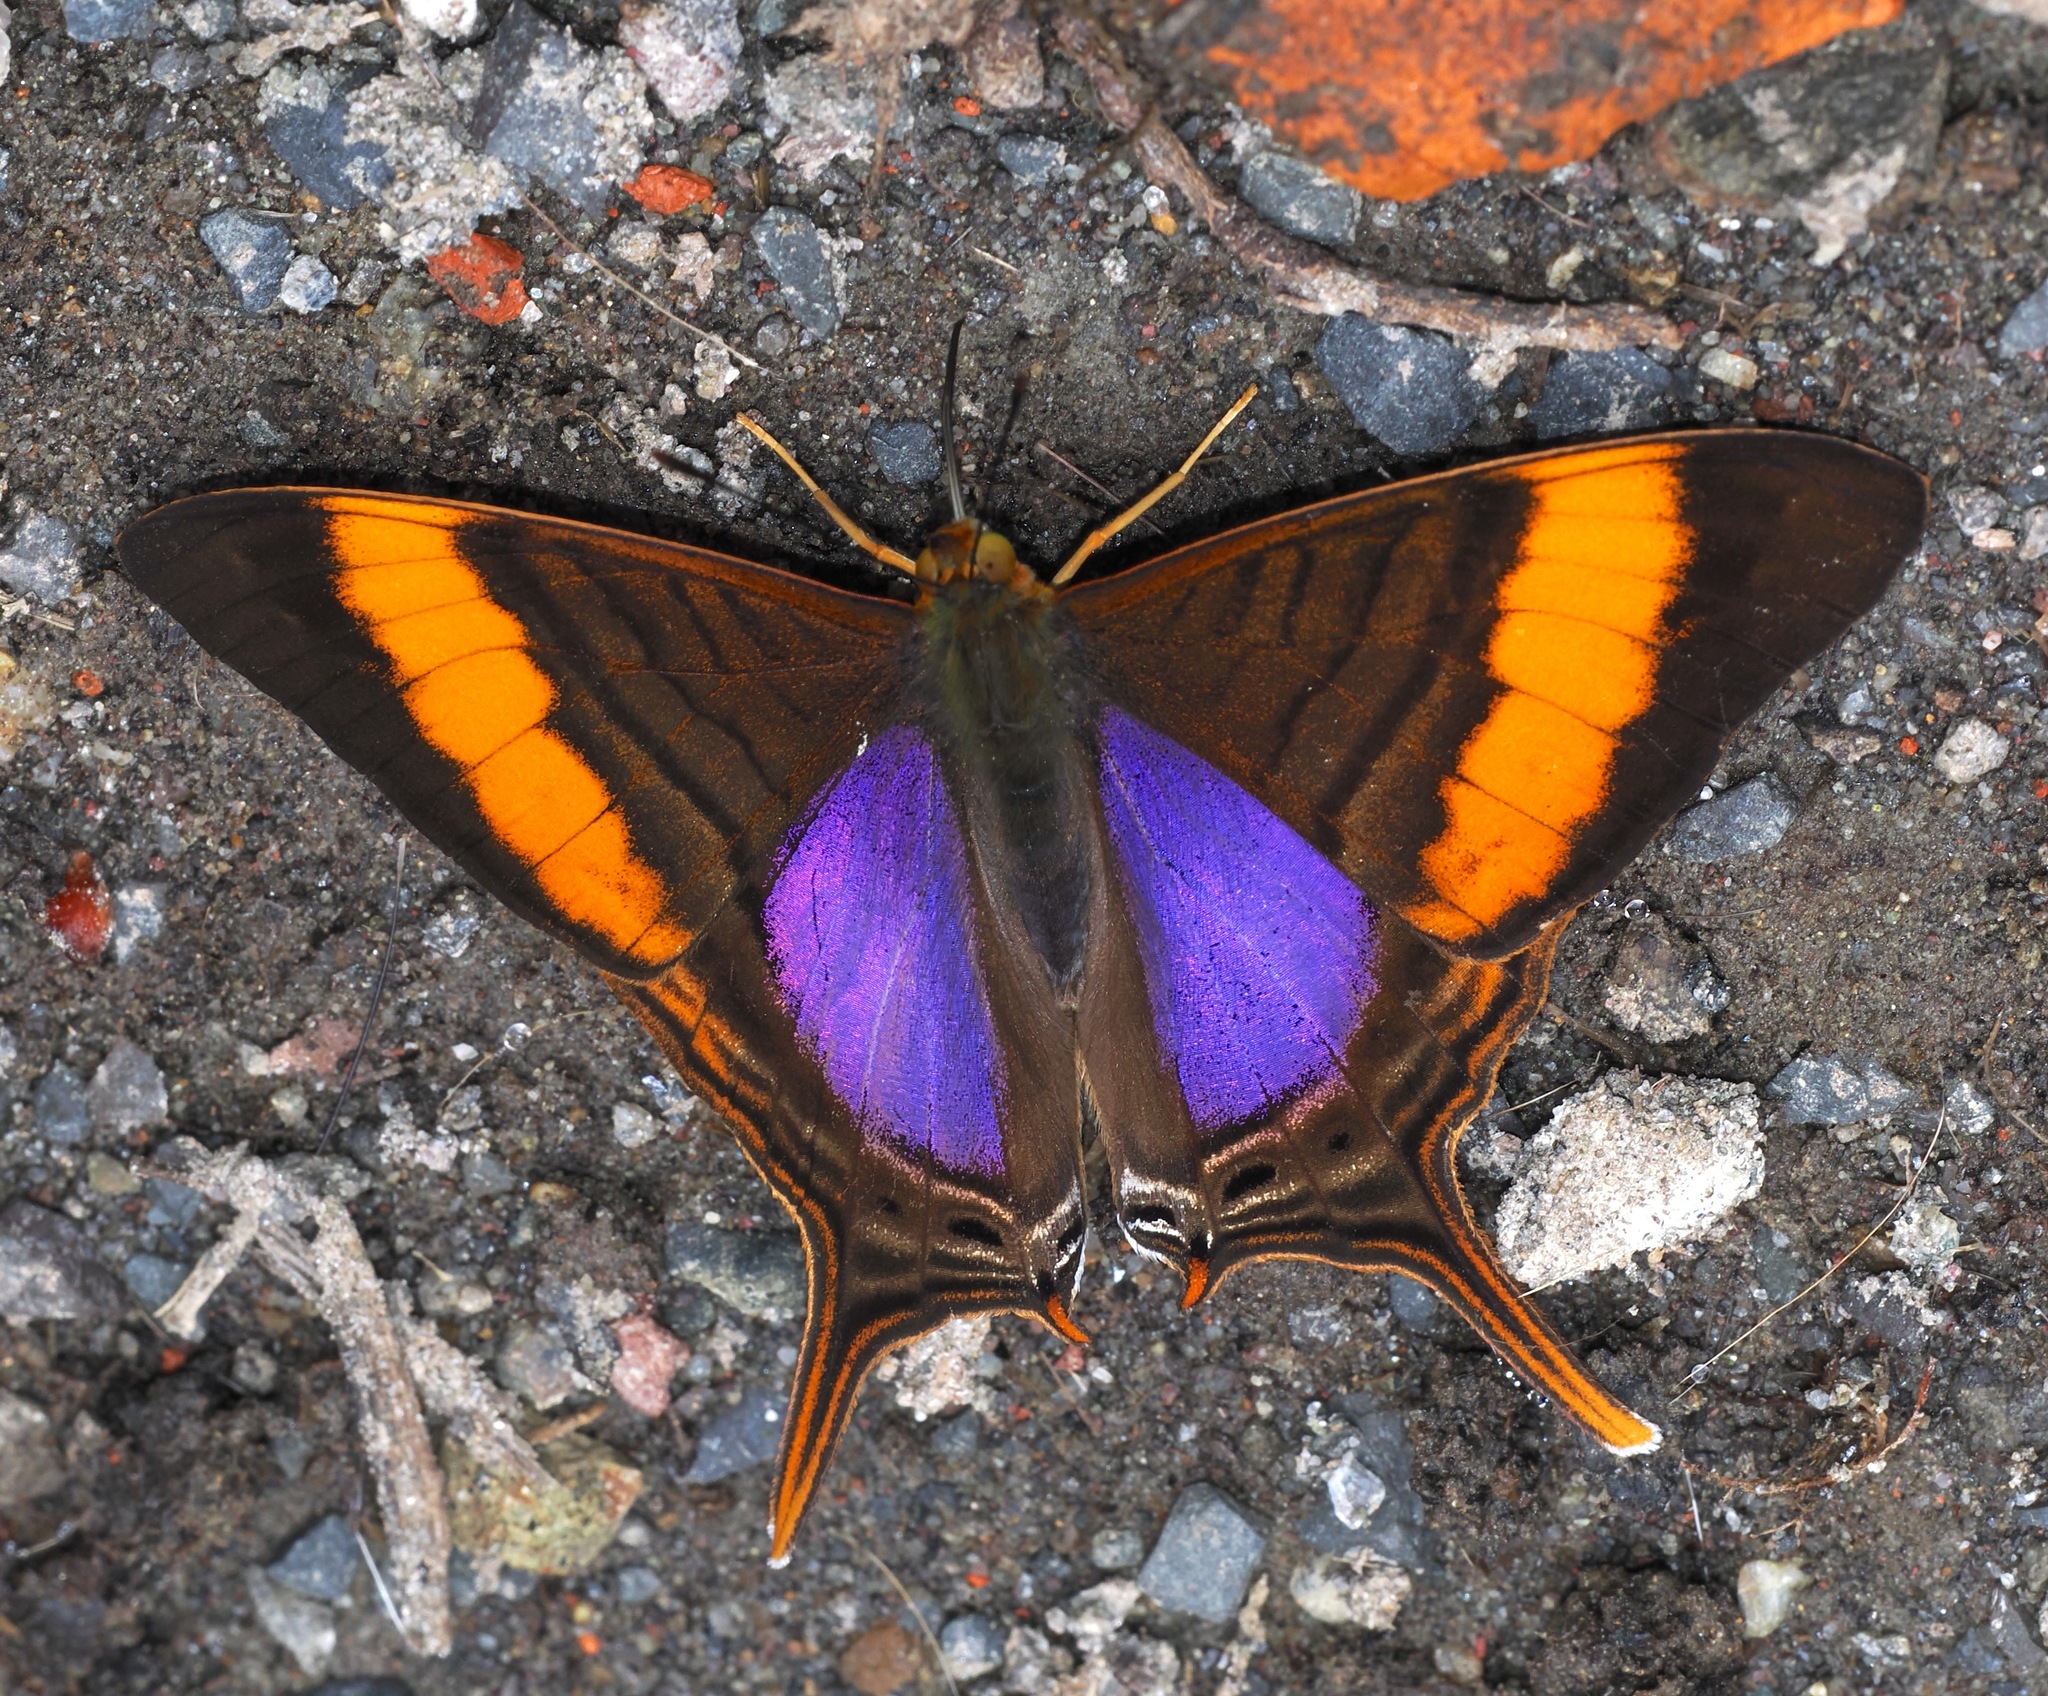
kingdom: Animalia
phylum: Arthropoda
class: Insecta
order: Lepidoptera
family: Nymphalidae
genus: Marpesia
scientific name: Marpesia corinna
